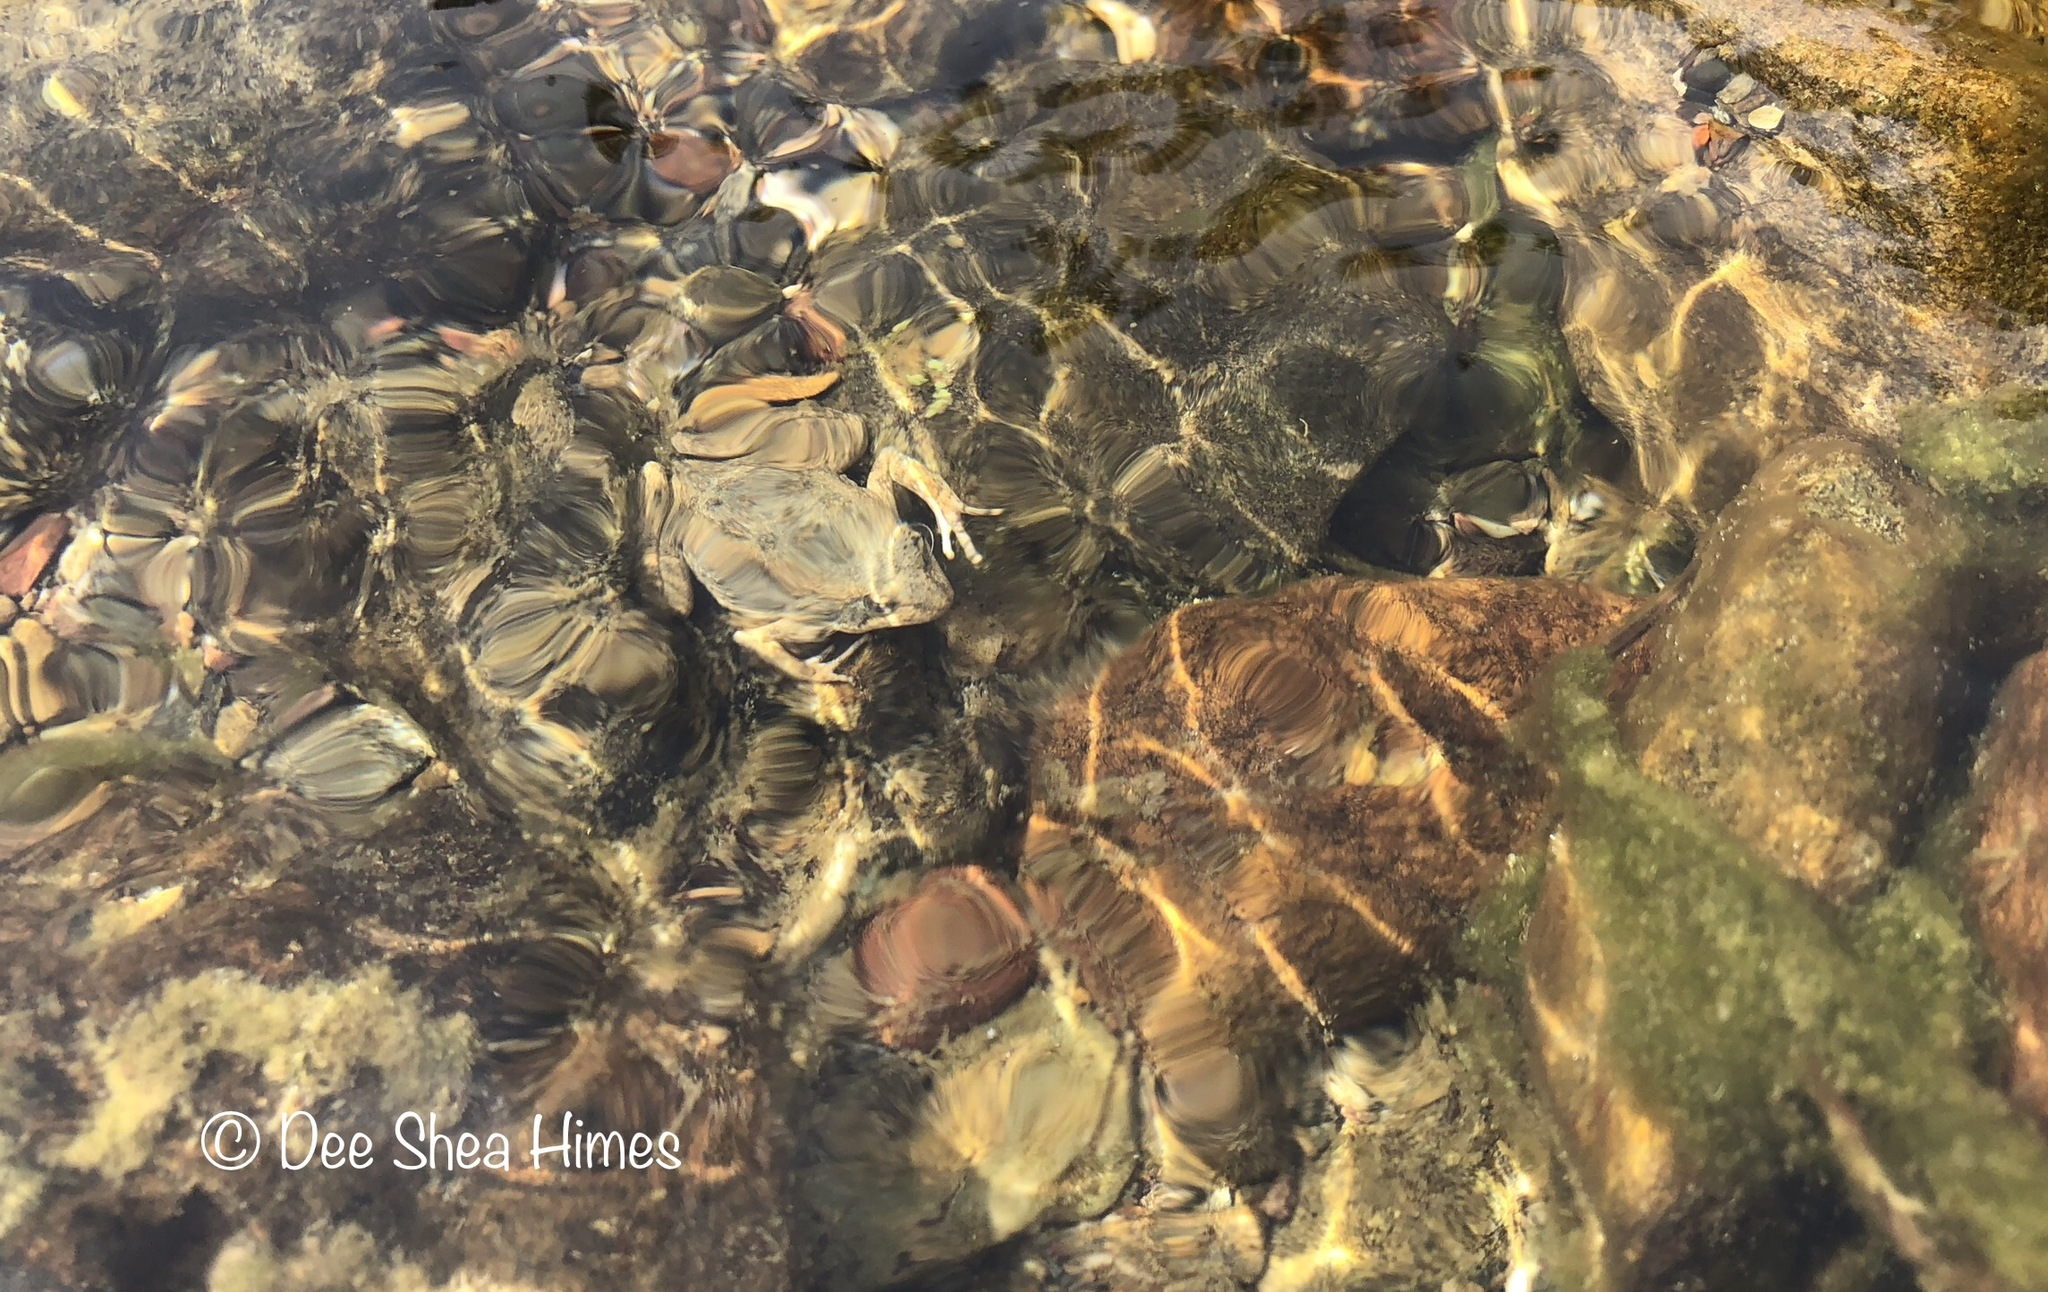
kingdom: Animalia
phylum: Chordata
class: Amphibia
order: Anura
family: Ranidae
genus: Rana
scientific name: Rana boylii
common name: Foothill yellow-legged frog
